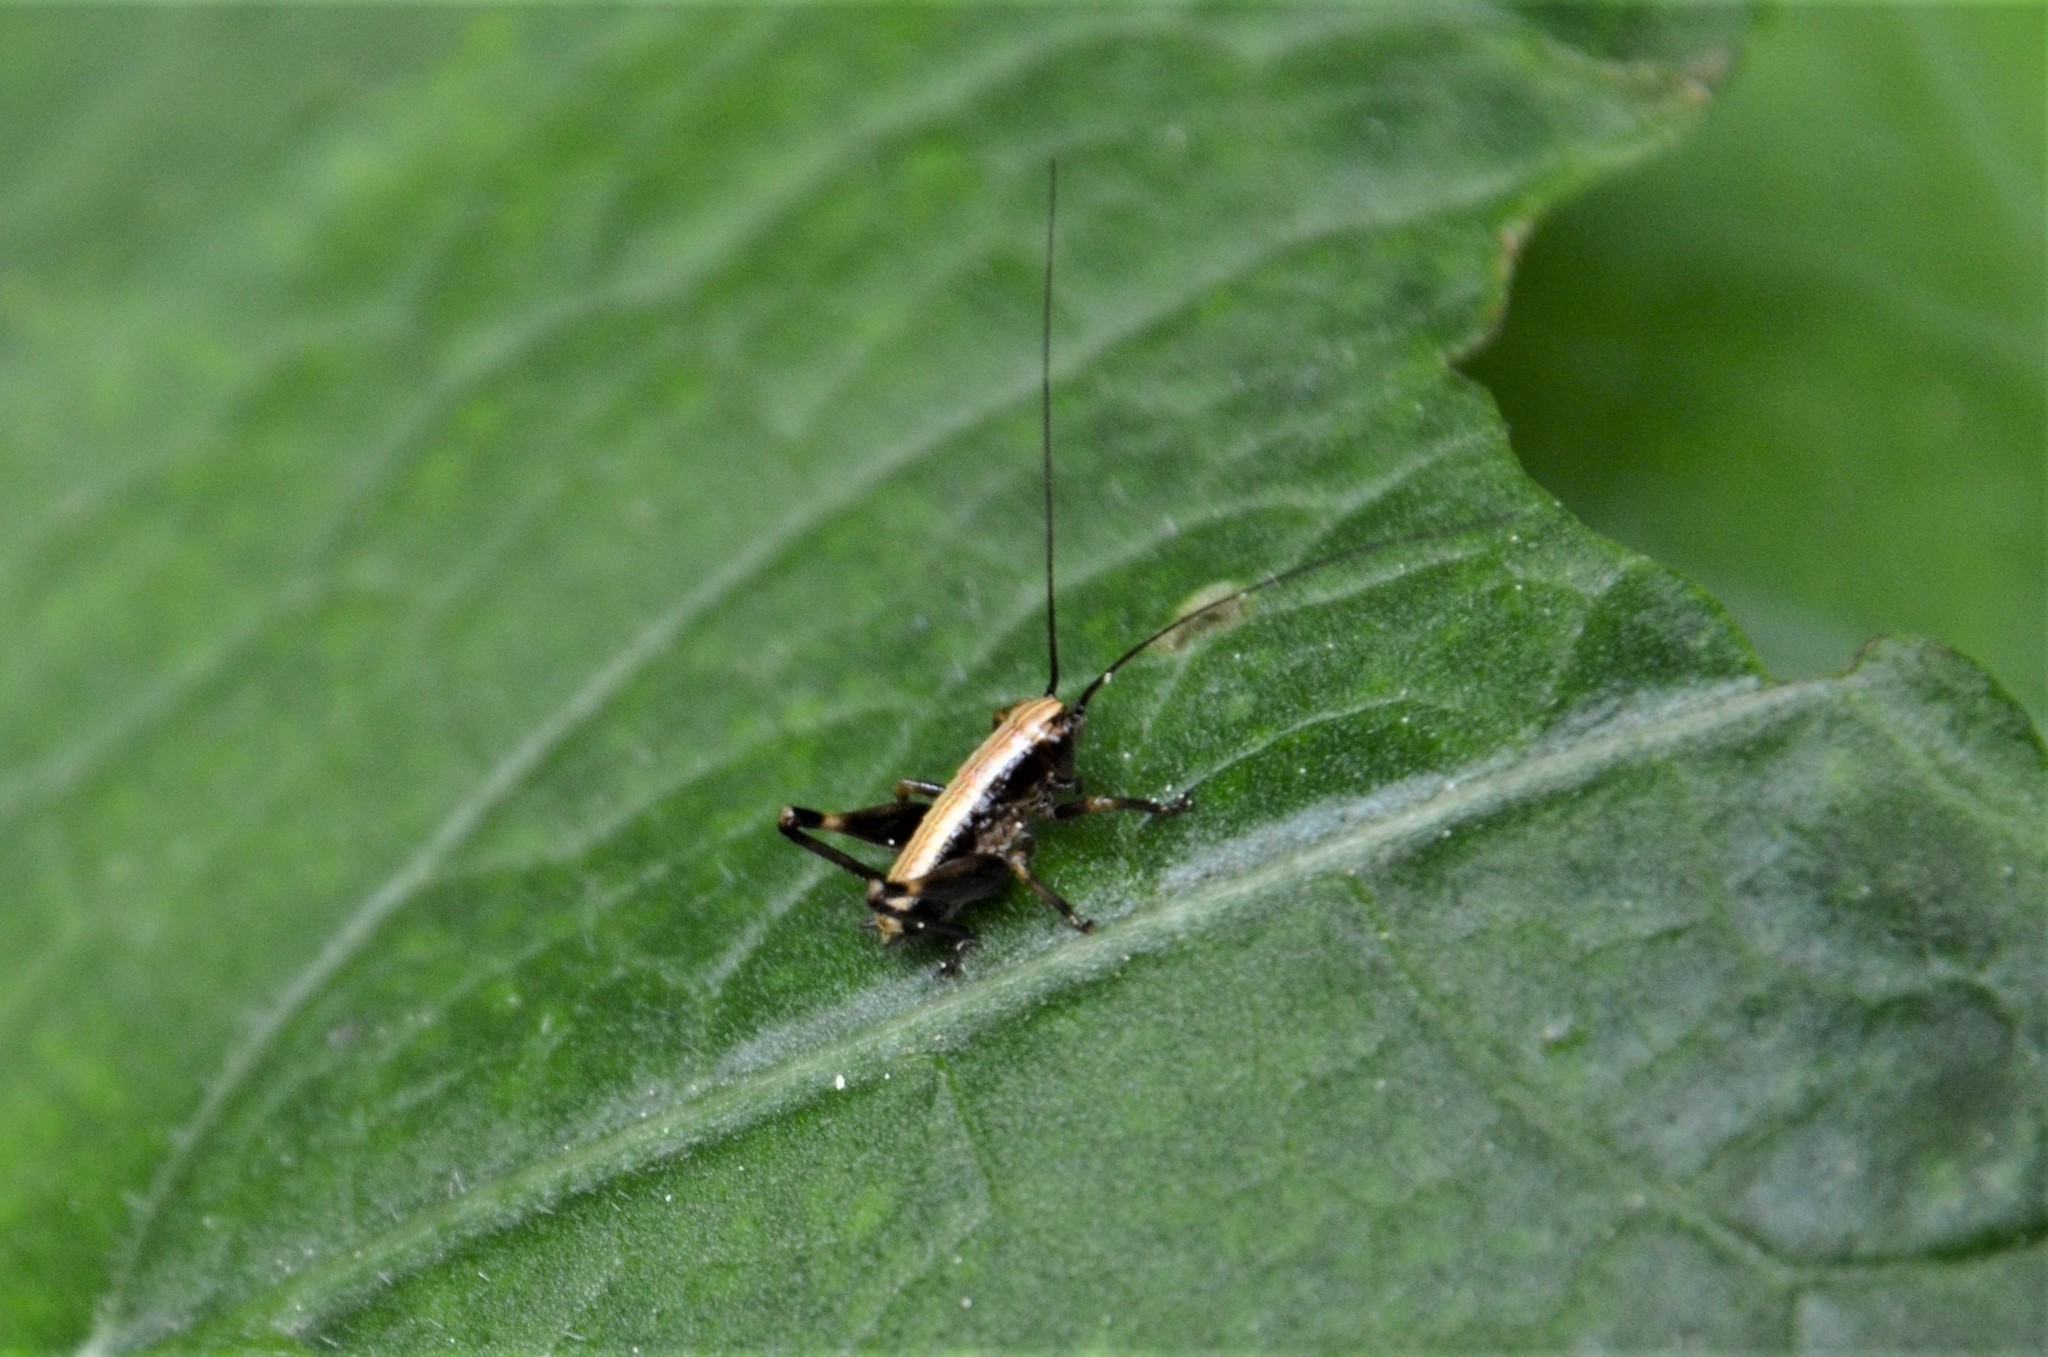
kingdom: Animalia
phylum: Arthropoda
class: Insecta
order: Orthoptera
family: Tettigoniidae
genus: Pholidoptera
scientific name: Pholidoptera griseoaptera
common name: Dark bush-cricket
